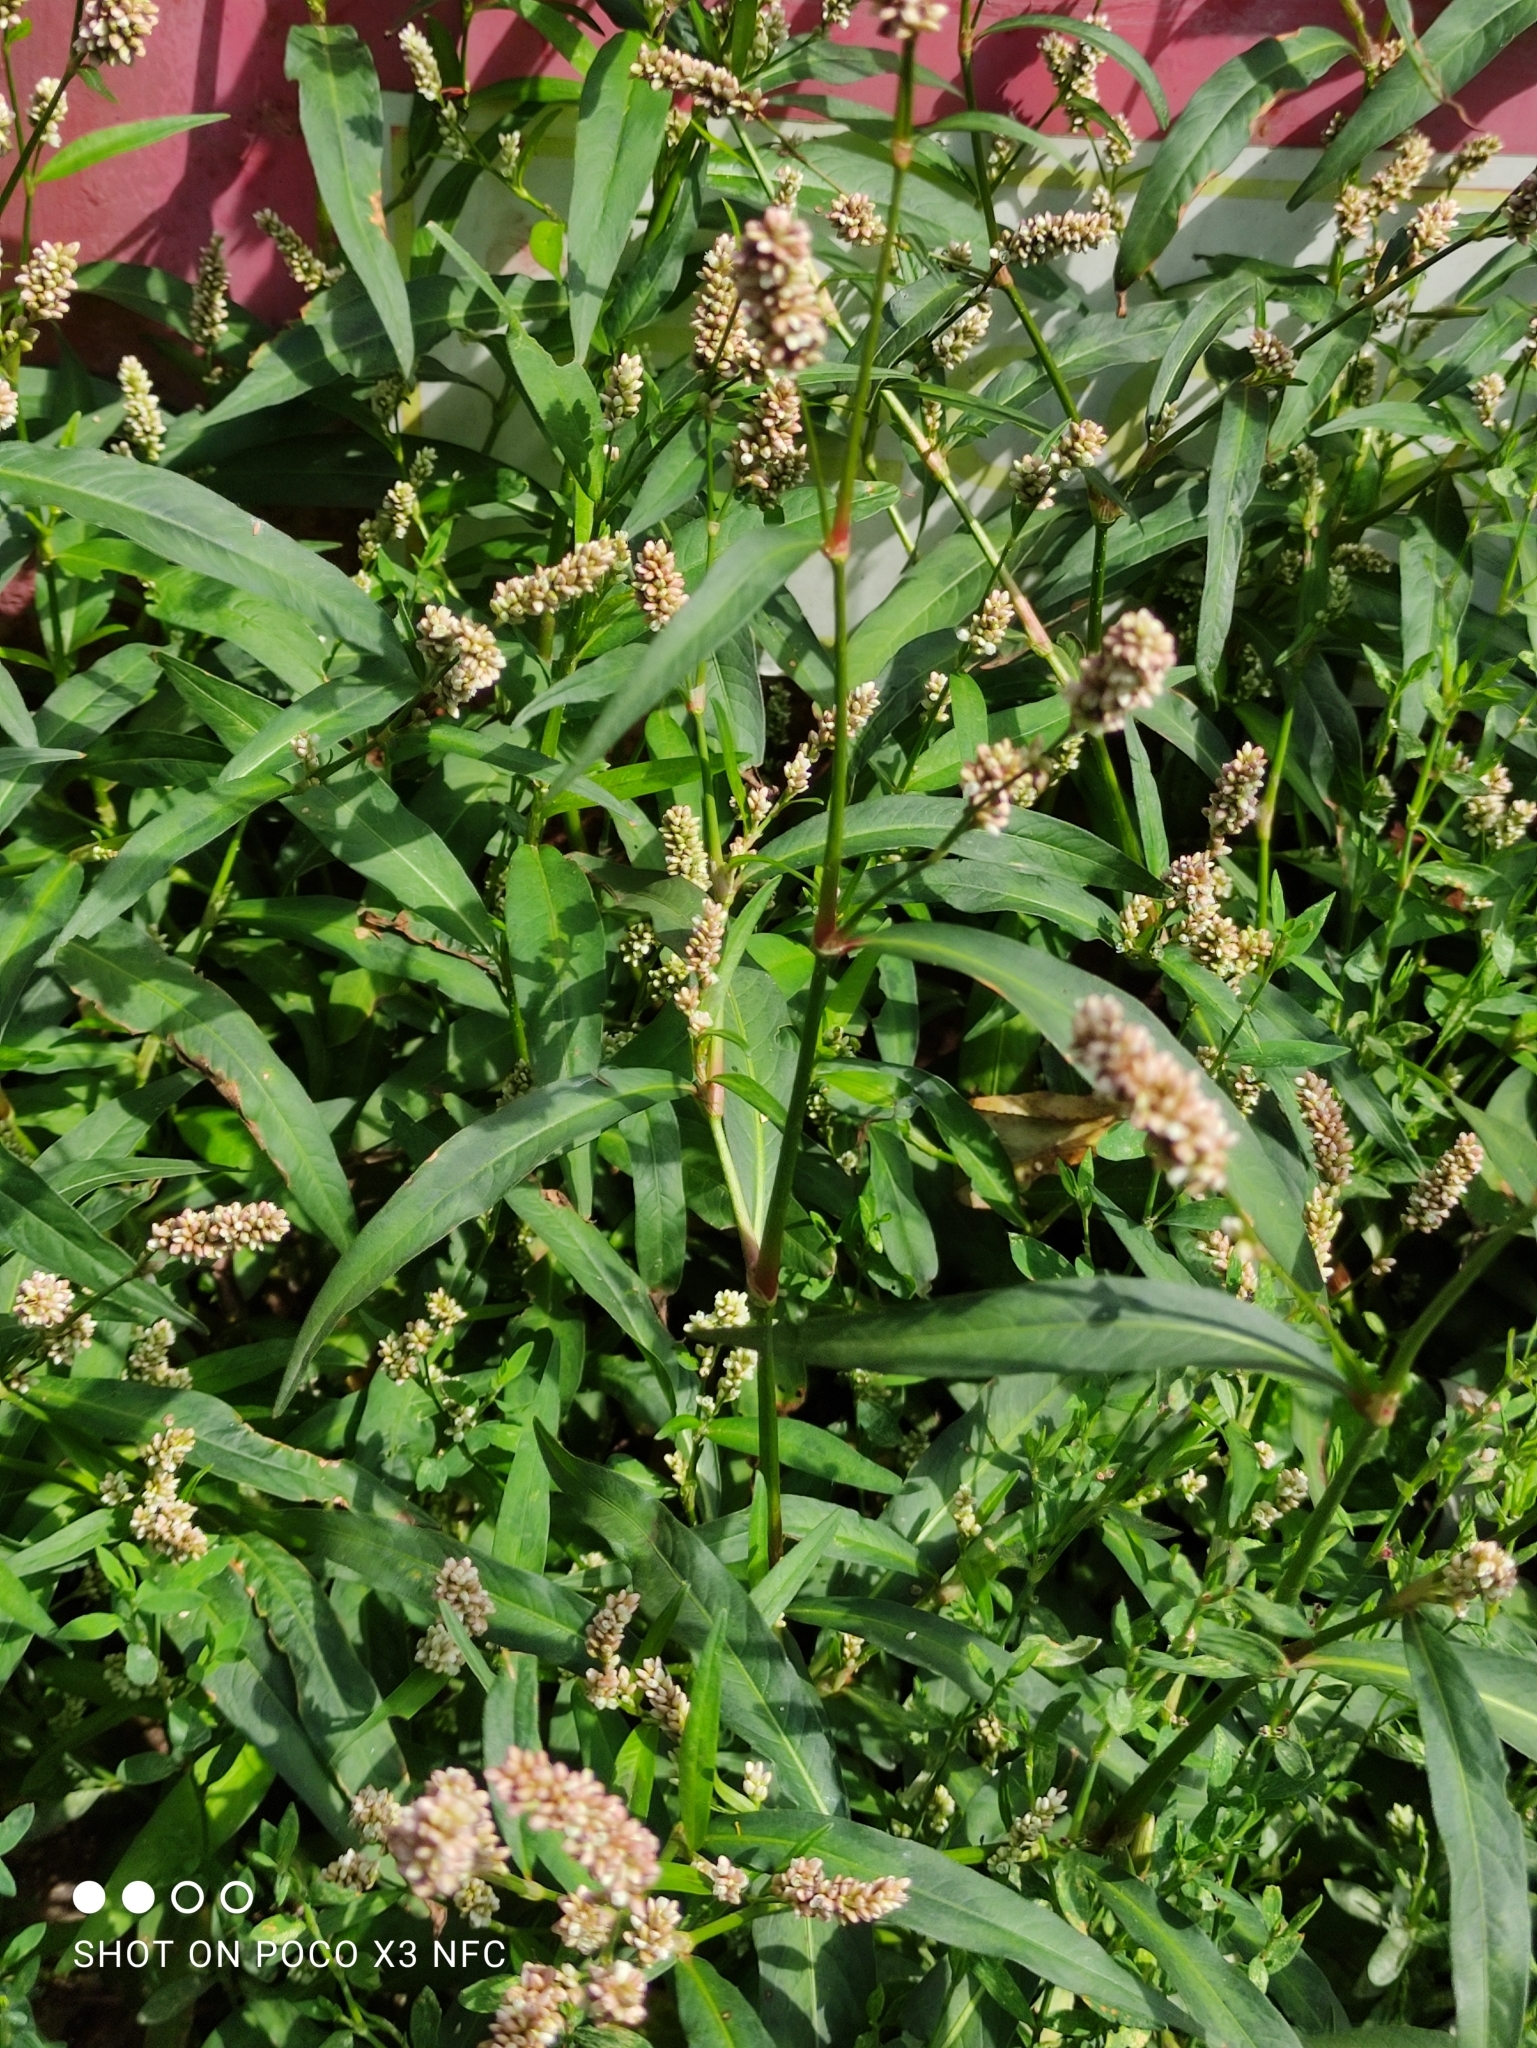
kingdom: Plantae
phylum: Tracheophyta
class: Magnoliopsida
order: Caryophyllales
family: Polygonaceae
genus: Persicaria
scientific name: Persicaria maculosa
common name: Redshank
